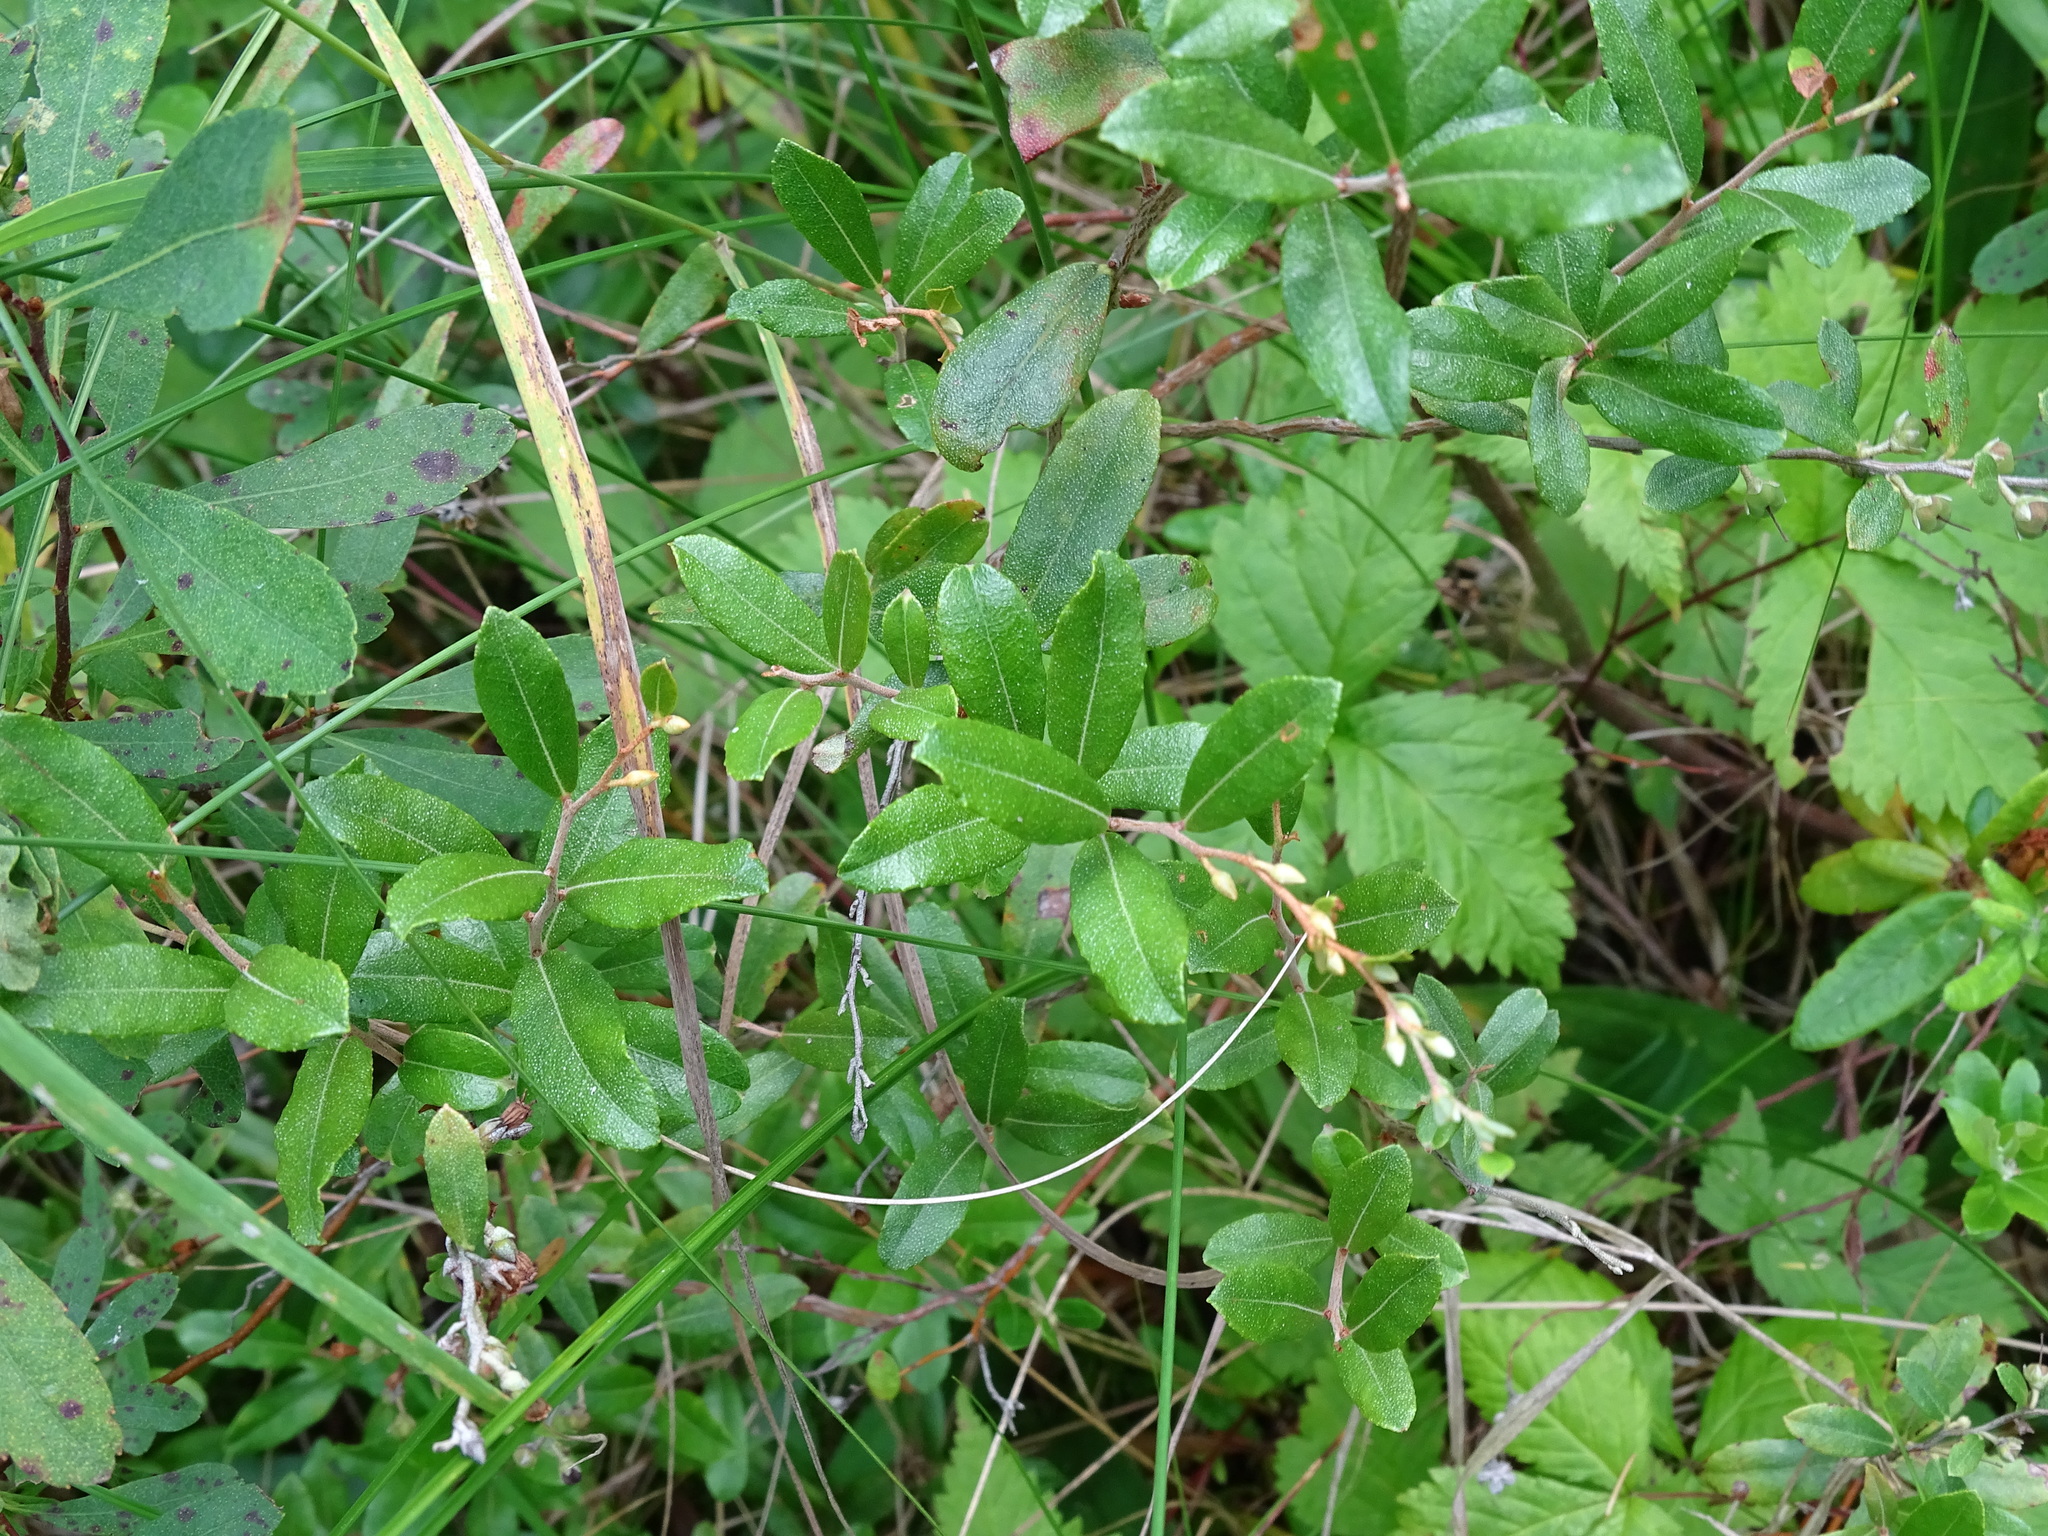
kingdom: Plantae
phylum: Tracheophyta
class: Magnoliopsida
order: Ericales
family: Ericaceae
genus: Chamaedaphne
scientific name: Chamaedaphne calyculata
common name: Leatherleaf
